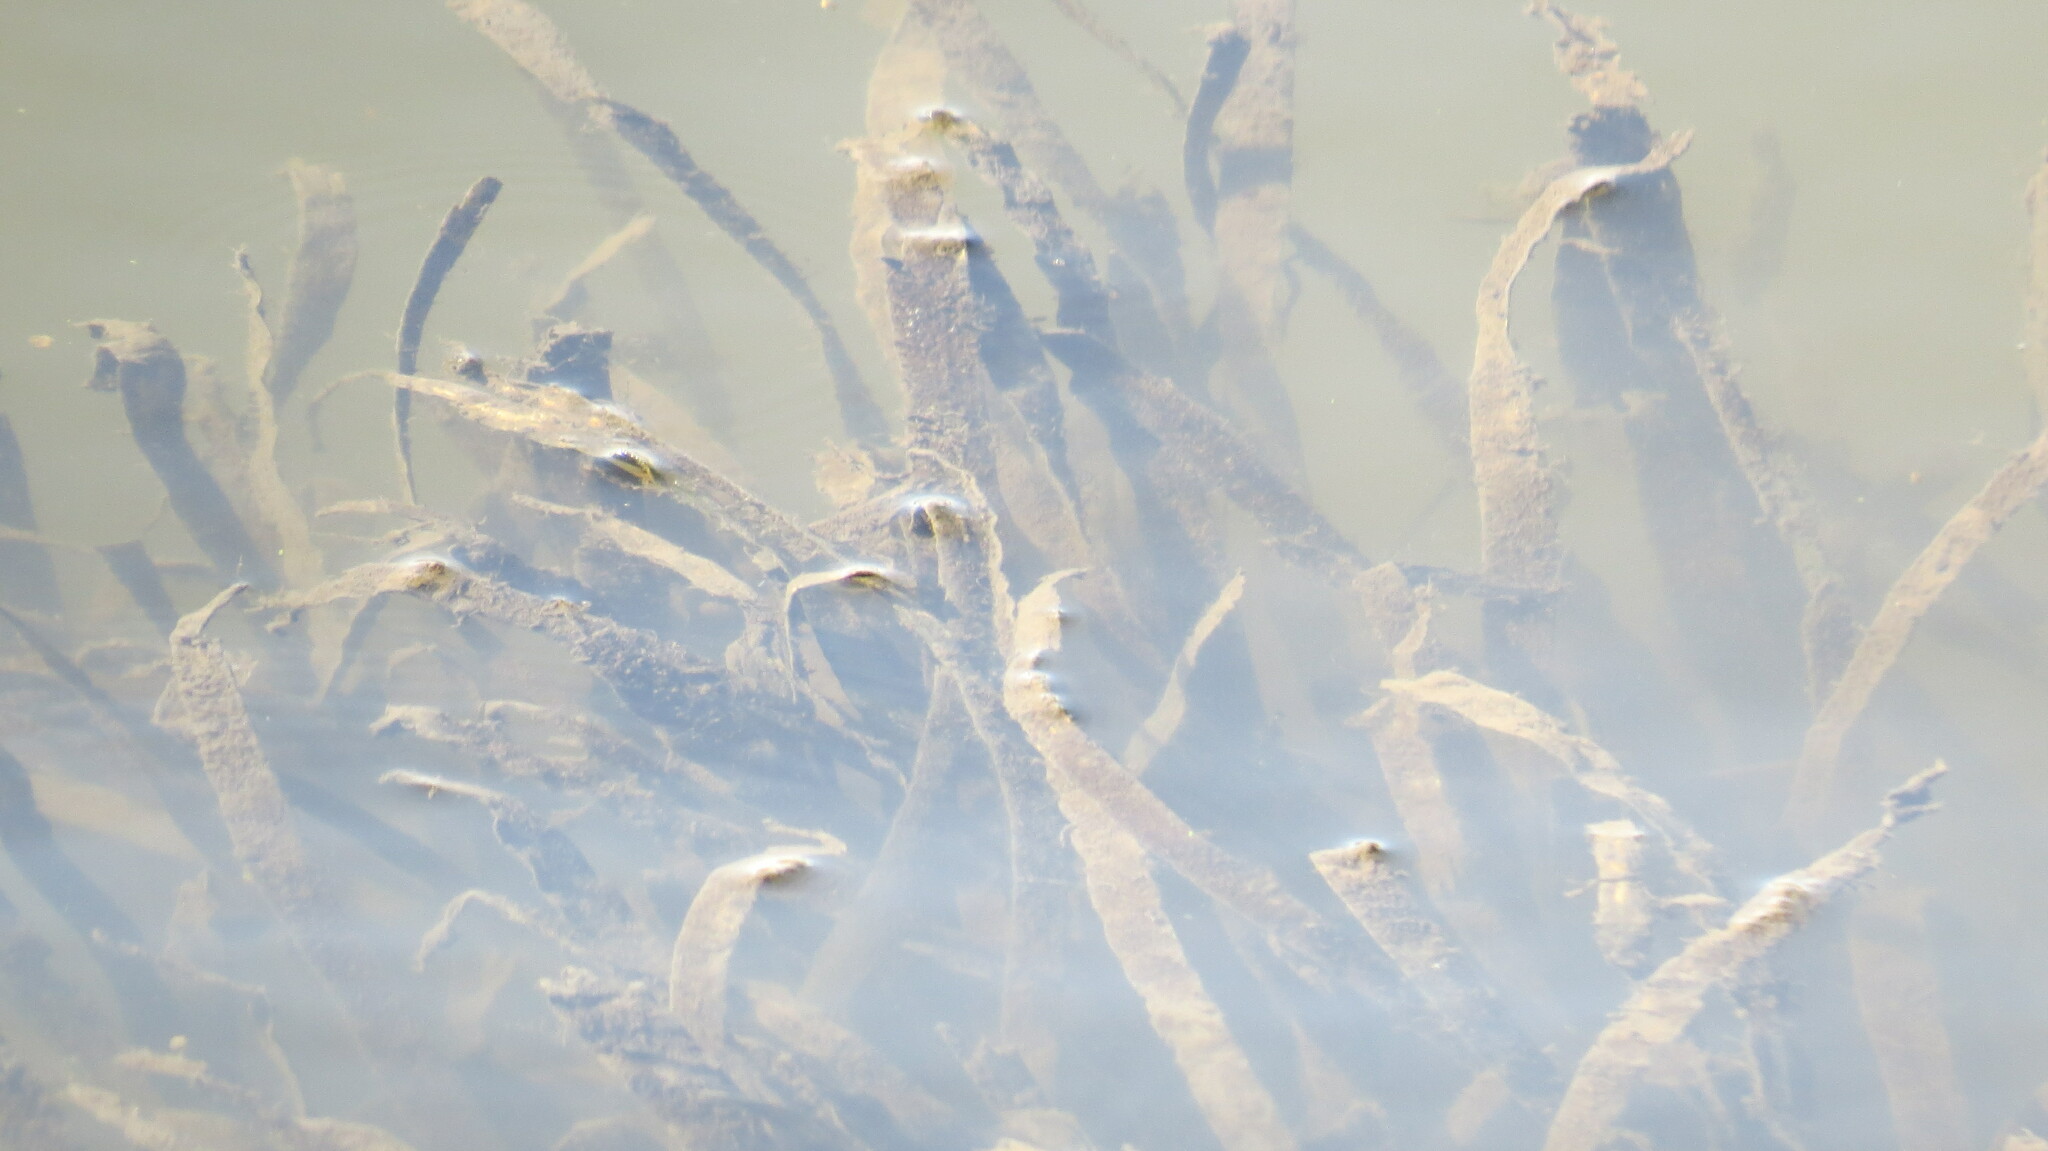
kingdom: Plantae
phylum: Tracheophyta
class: Liliopsida
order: Alismatales
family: Hydrocharitaceae
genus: Vallisneria
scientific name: Vallisneria americana
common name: American eelgrass
